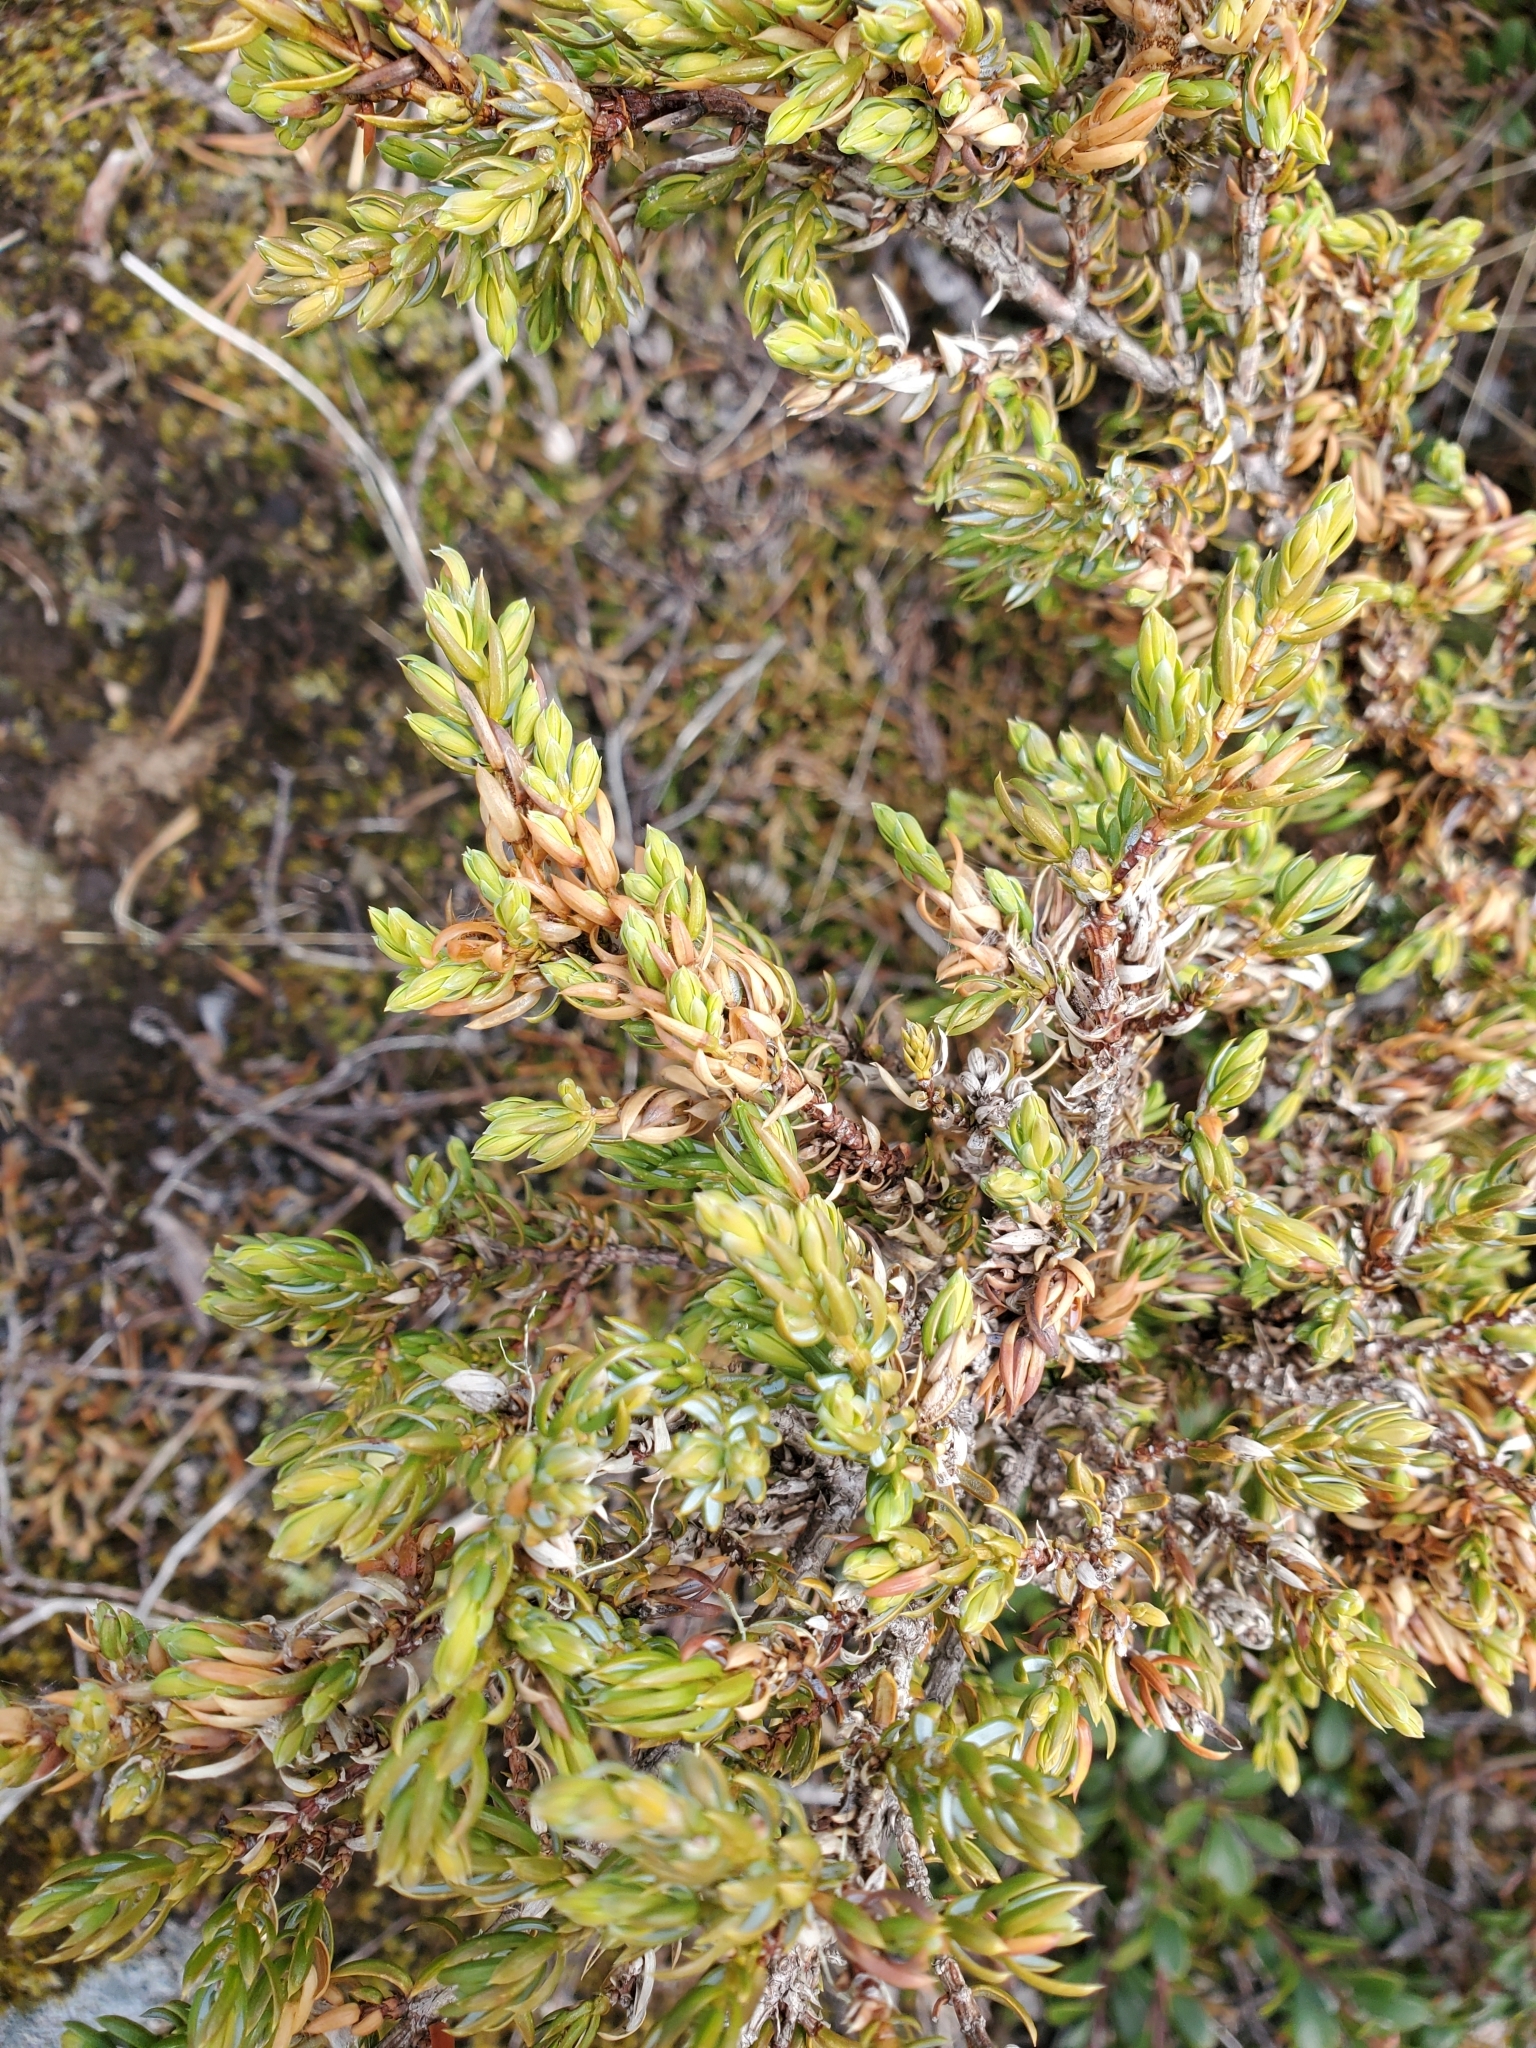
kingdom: Plantae
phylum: Tracheophyta
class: Pinopsida
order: Pinales
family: Cupressaceae
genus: Juniperus
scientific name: Juniperus communis
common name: Common juniper
